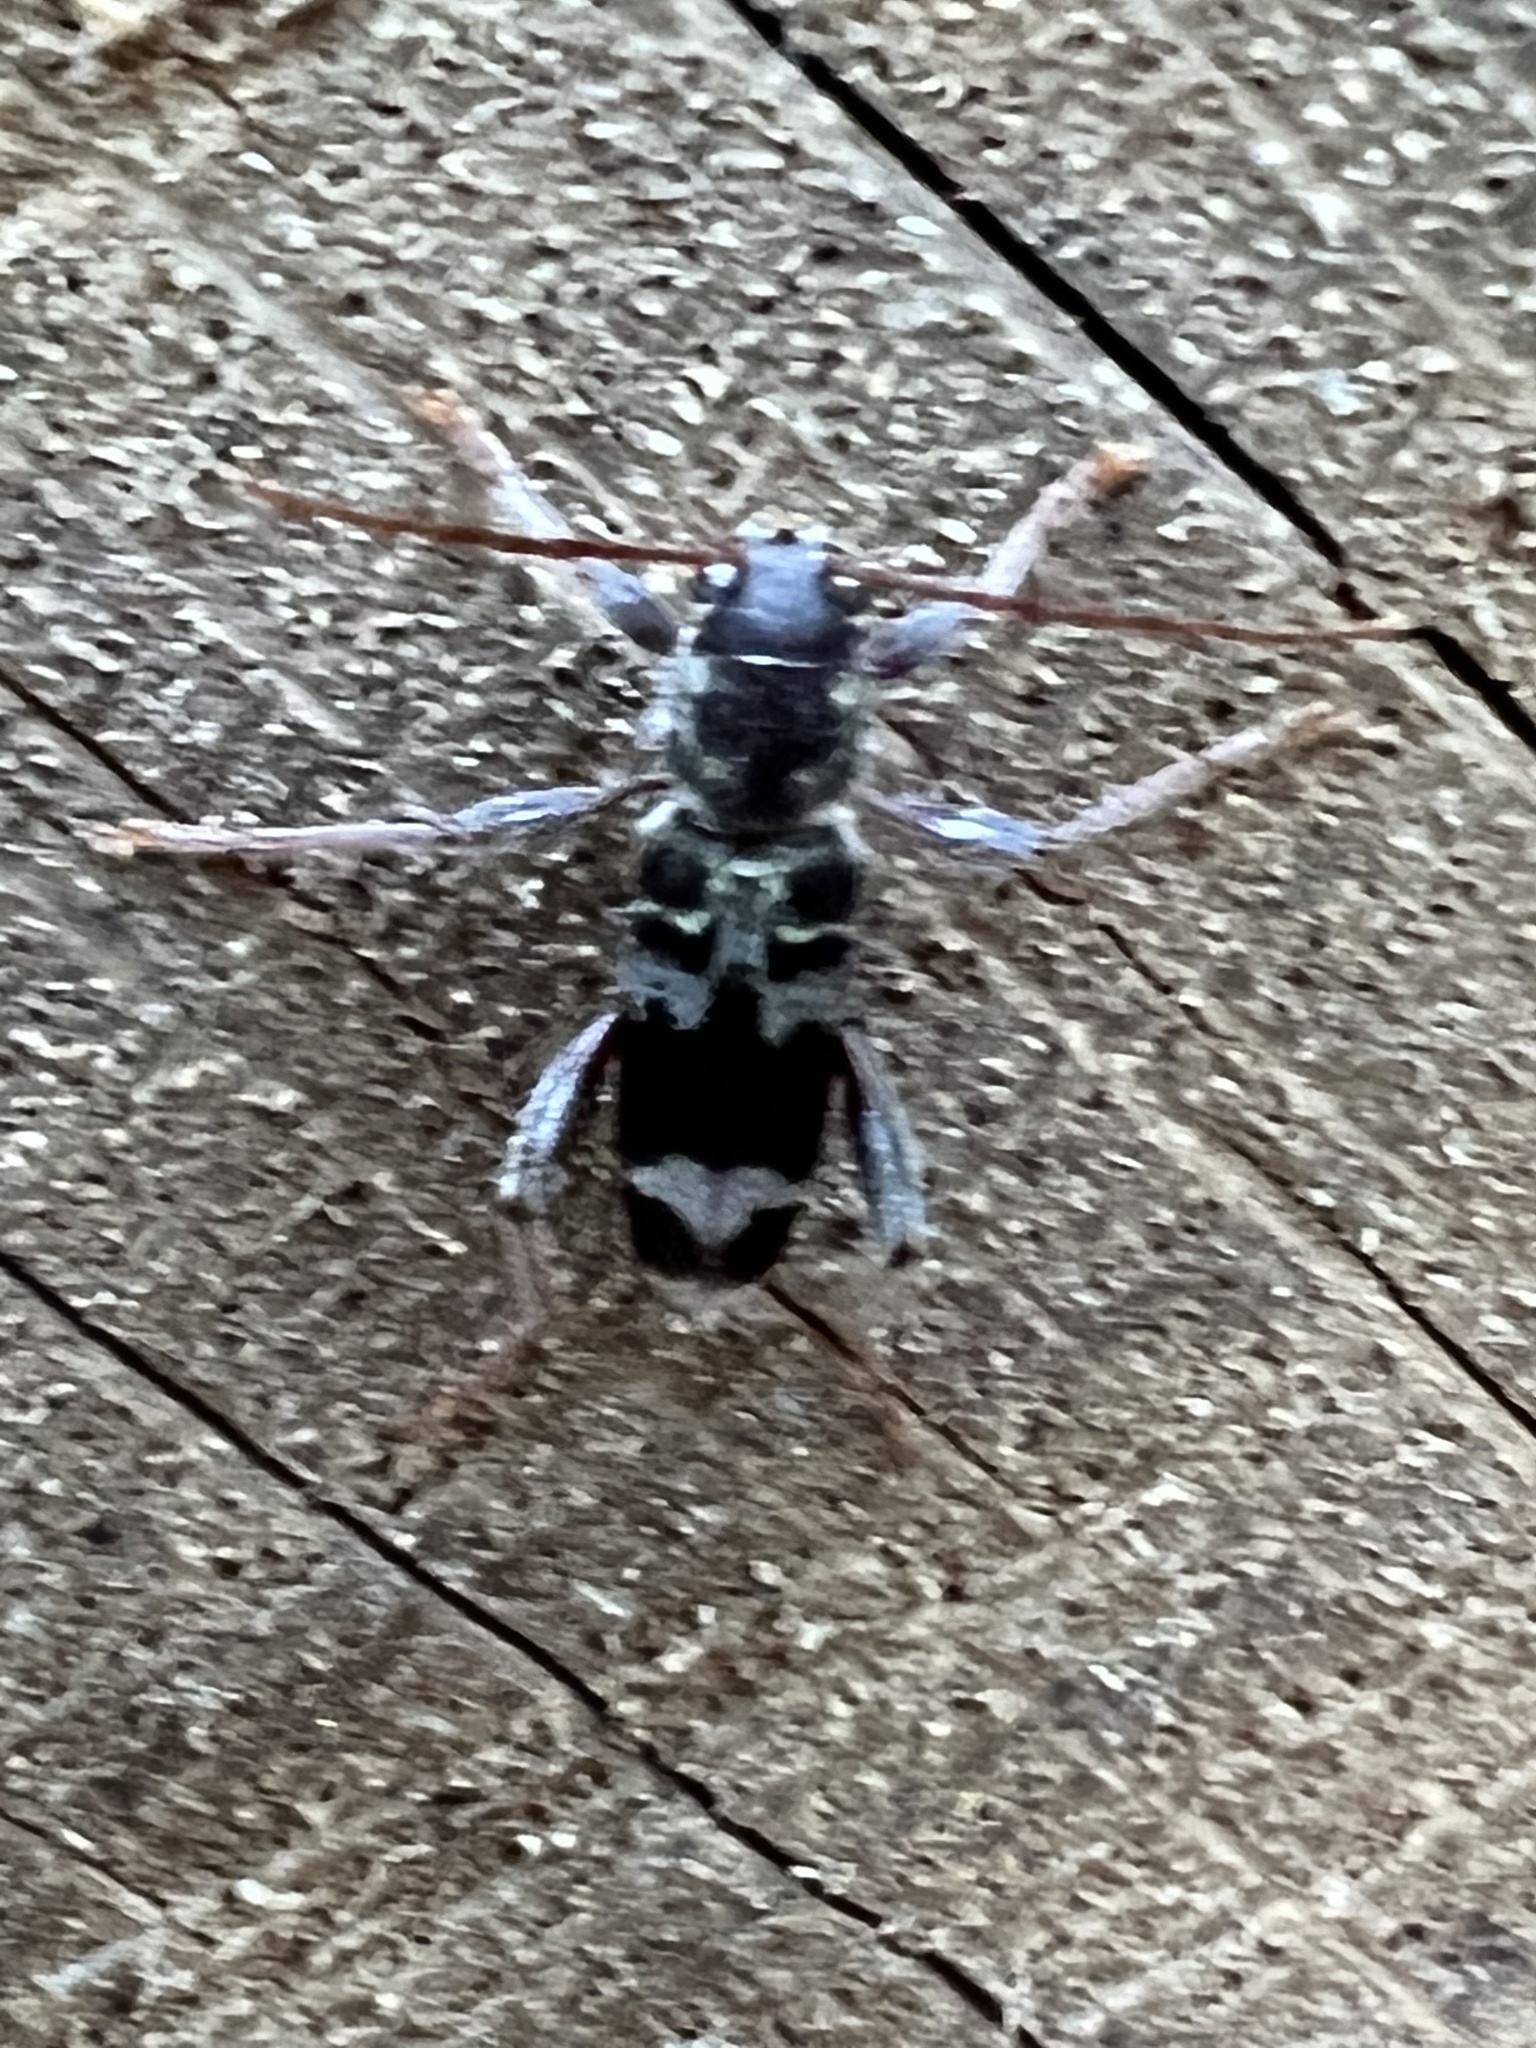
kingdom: Animalia
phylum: Arthropoda
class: Insecta
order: Coleoptera
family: Cerambycidae
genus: Xylotrechus
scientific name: Xylotrechus colonus
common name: Long-horned beetle
